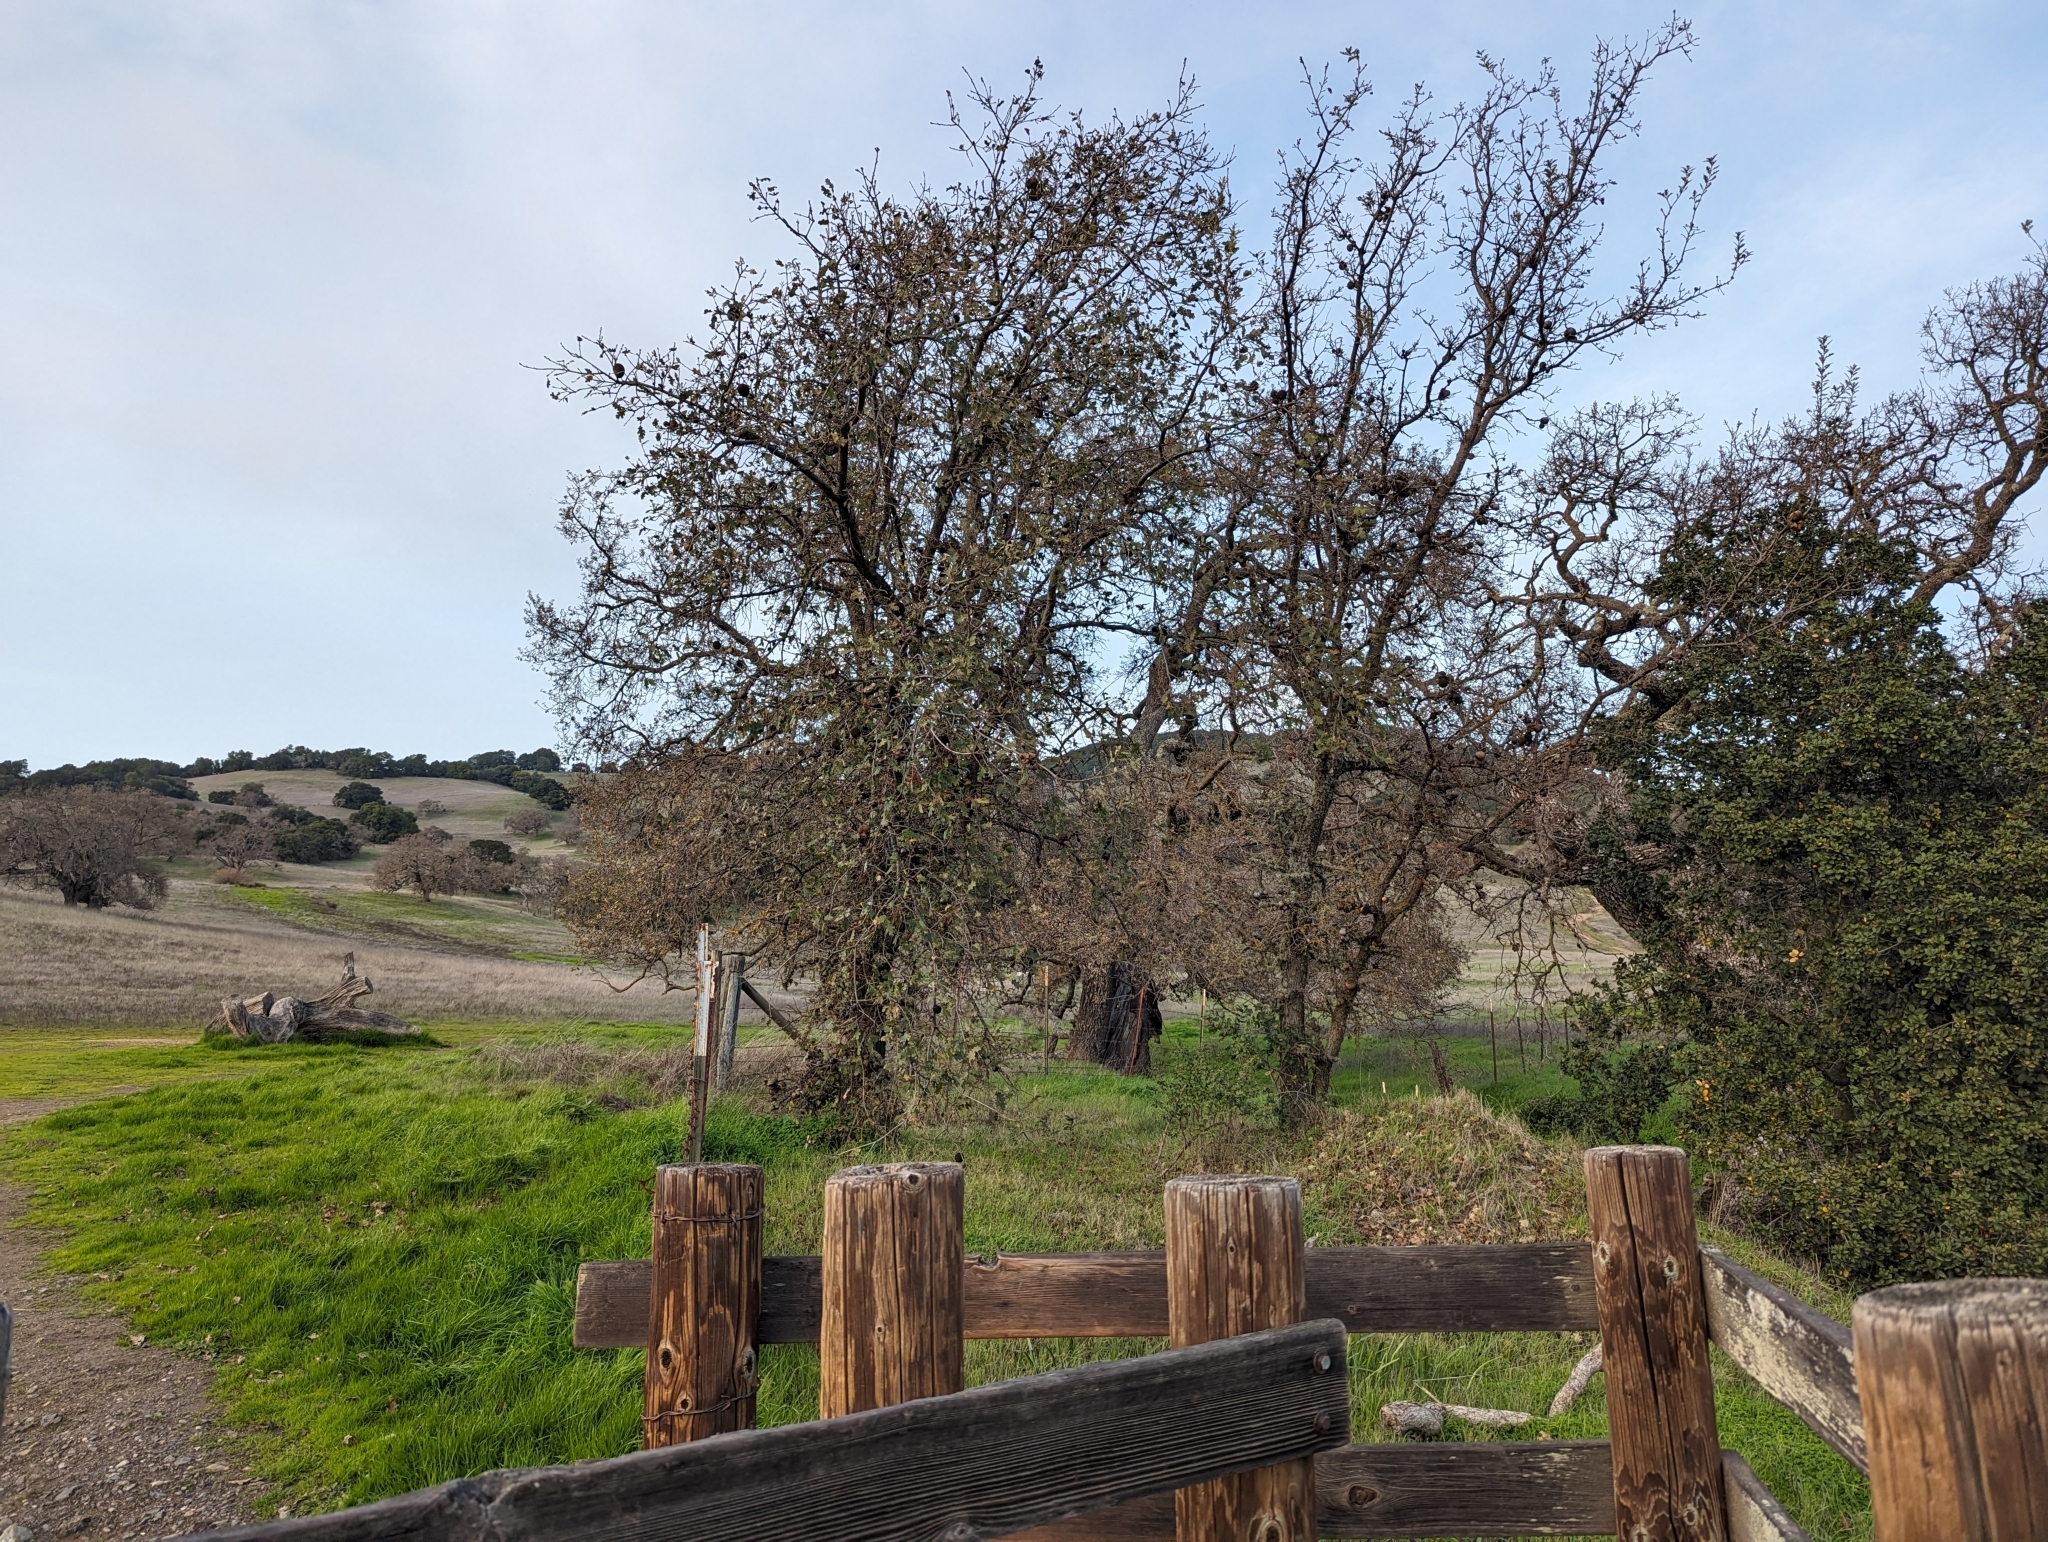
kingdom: Animalia
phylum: Arthropoda
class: Insecta
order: Hymenoptera
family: Cynipidae
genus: Andricus
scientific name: Andricus quercuscalifornicus
